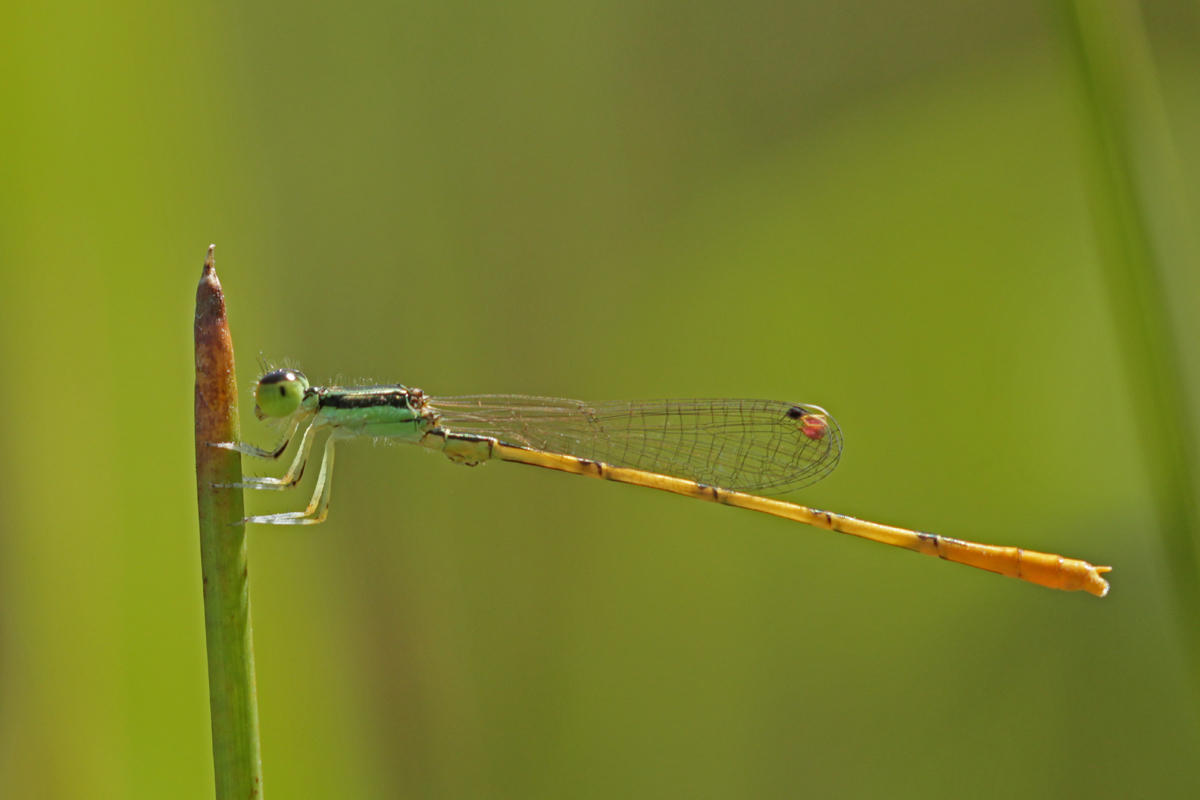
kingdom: Animalia
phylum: Arthropoda
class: Insecta
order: Odonata
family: Coenagrionidae
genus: Ischnura
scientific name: Ischnura hastata
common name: Citrine forktail
